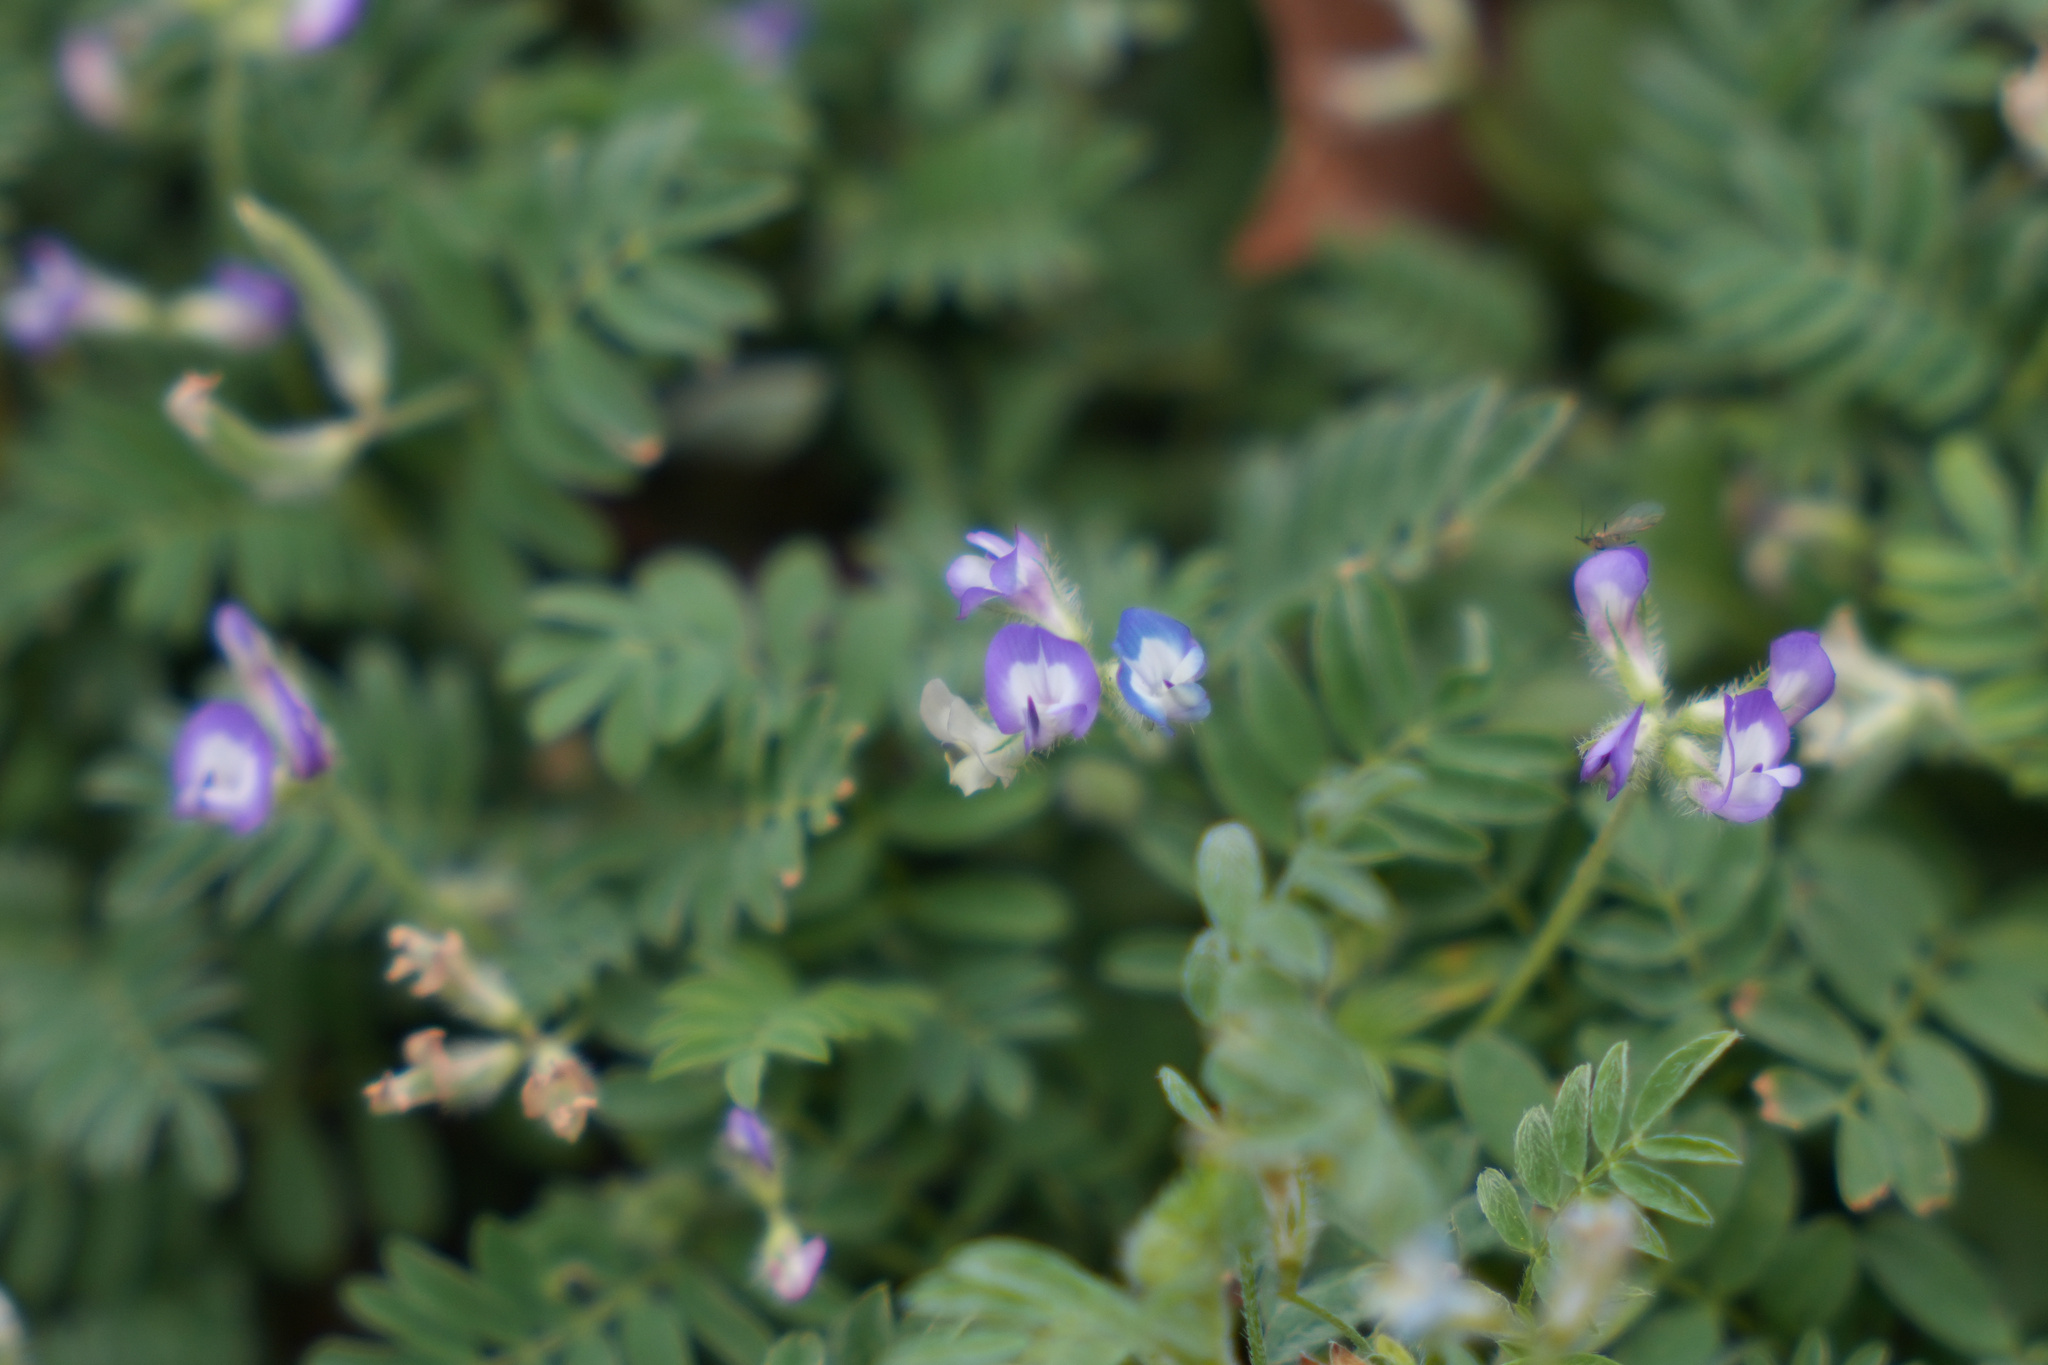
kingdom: Plantae
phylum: Tracheophyta
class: Magnoliopsida
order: Fabales
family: Fabaceae
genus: Astragalus
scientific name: Astragalus nuttallianus
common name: Smallflowered milkvetch
